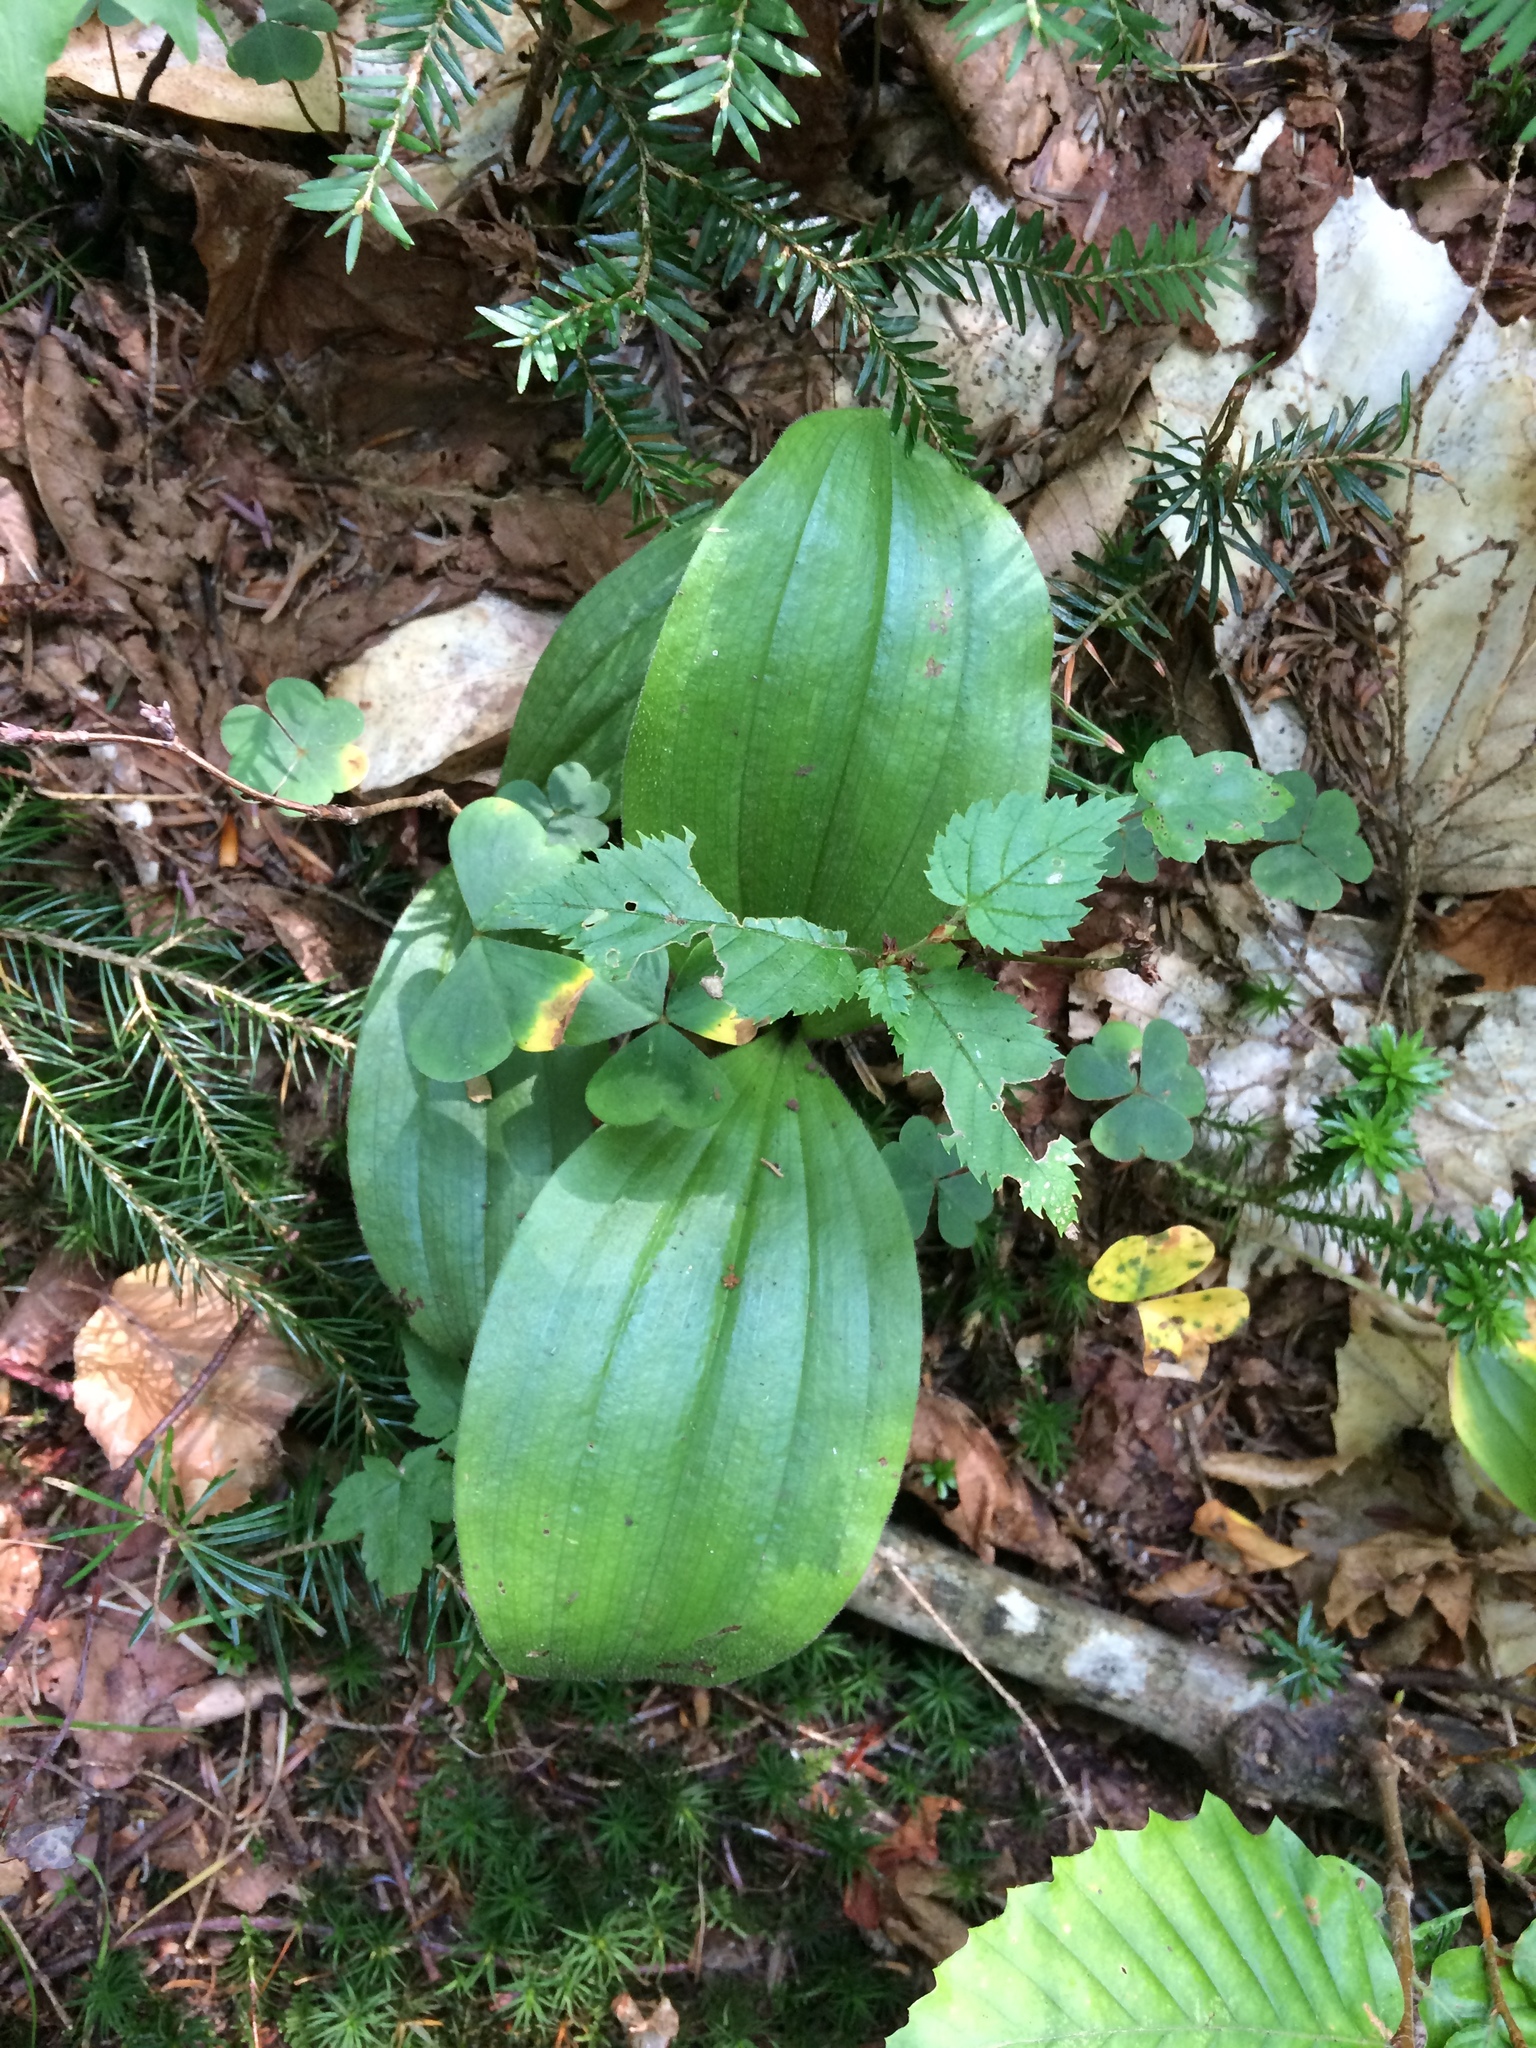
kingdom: Plantae
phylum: Tracheophyta
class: Liliopsida
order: Asparagales
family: Orchidaceae
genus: Cypripedium
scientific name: Cypripedium acaule
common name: Pink lady's-slipper
